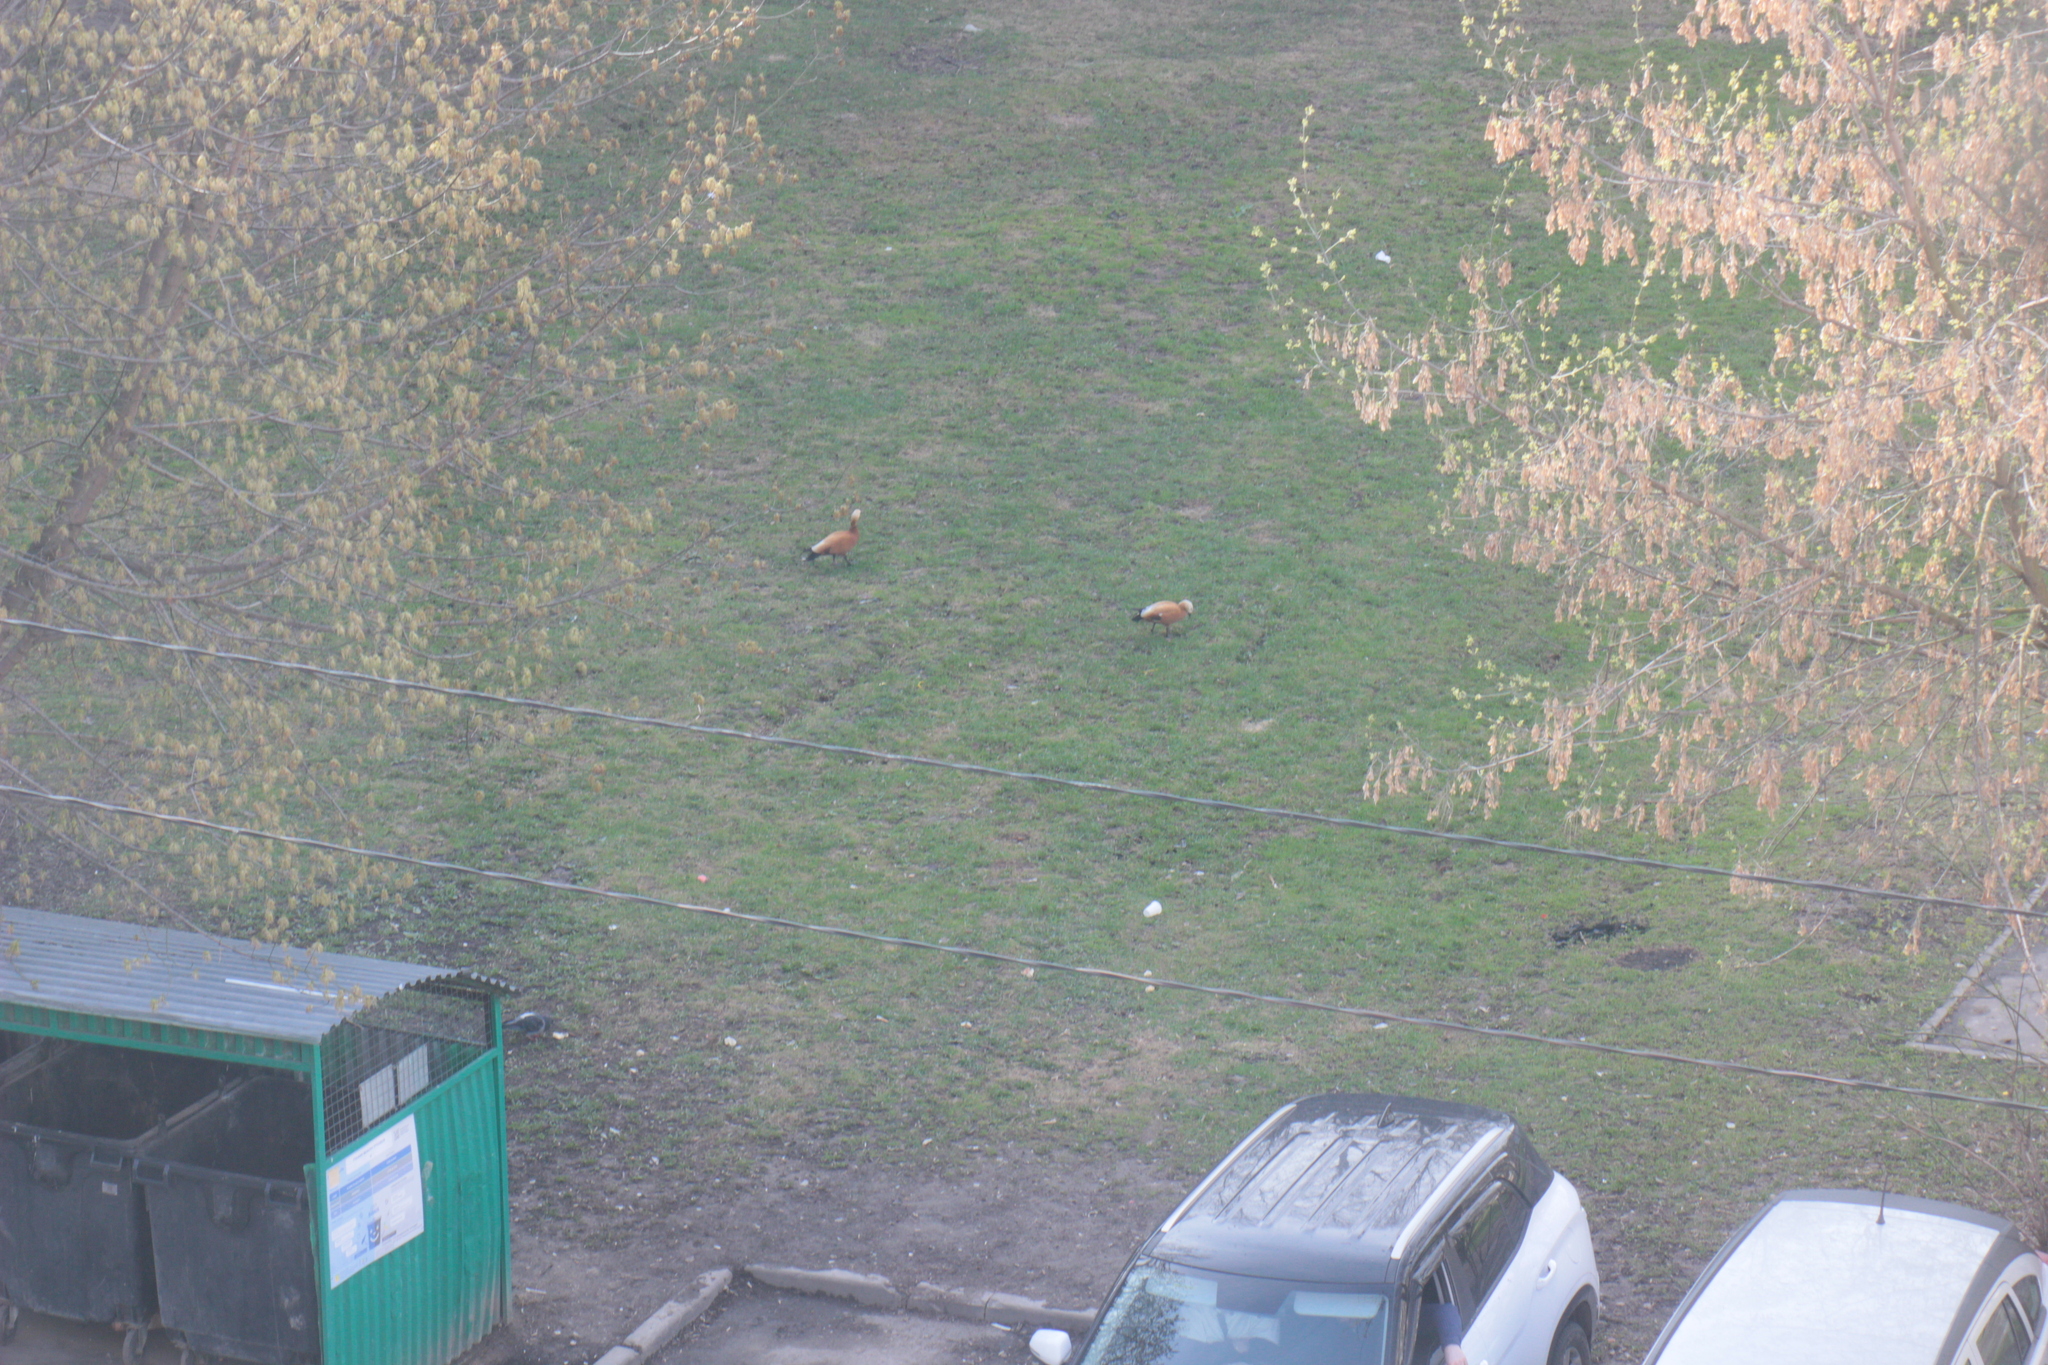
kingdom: Animalia
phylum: Chordata
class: Aves
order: Anseriformes
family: Anatidae
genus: Tadorna
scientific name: Tadorna ferruginea
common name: Ruddy shelduck
